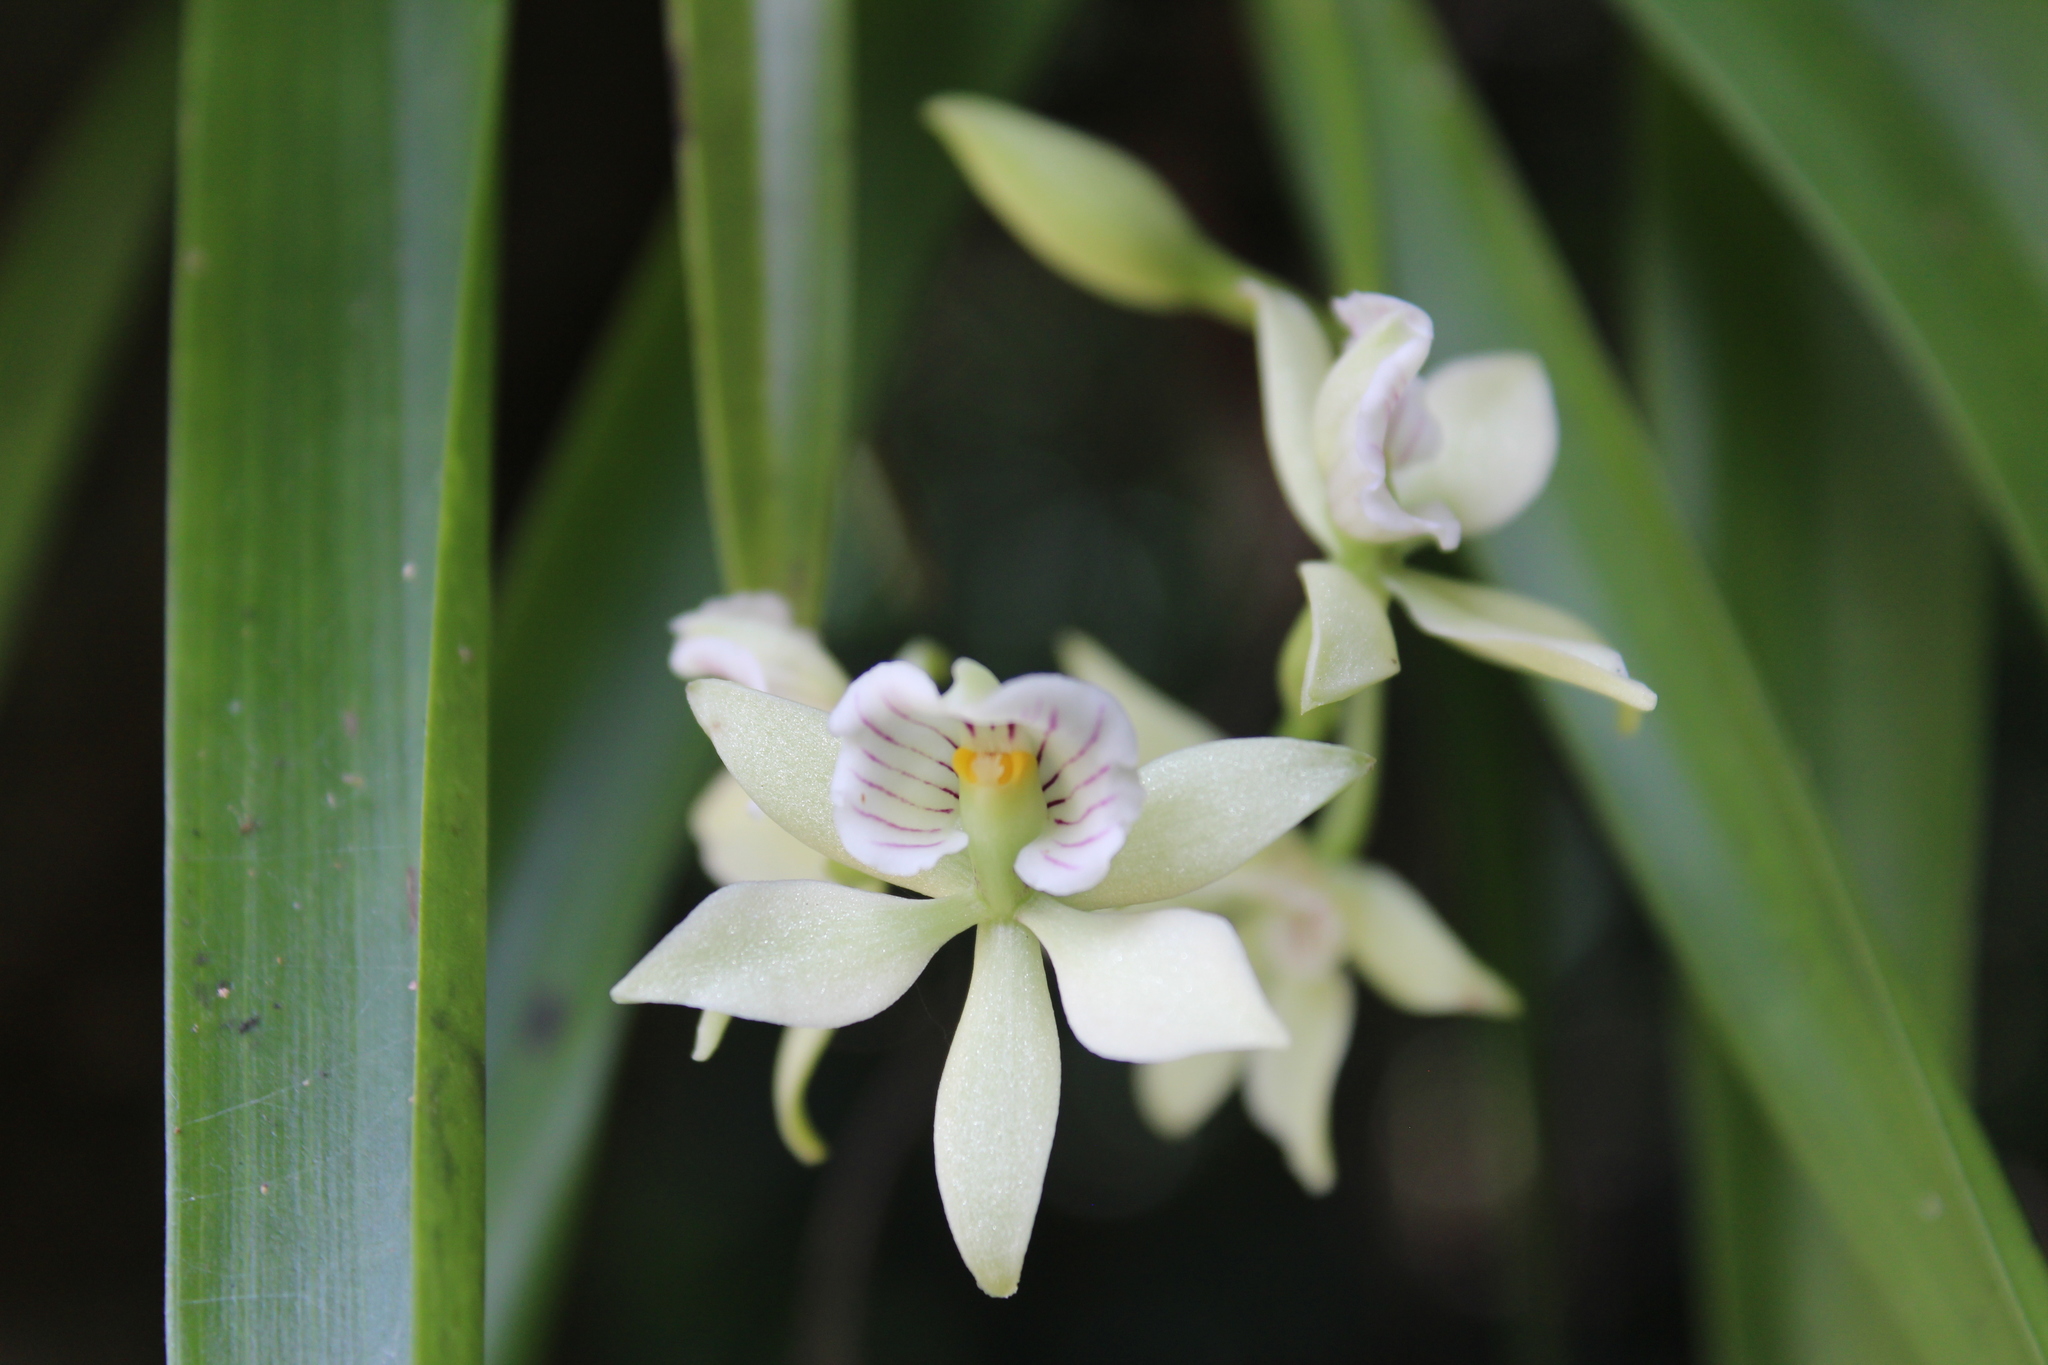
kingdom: Plantae
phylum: Tracheophyta
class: Liliopsida
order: Asparagales
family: Orchidaceae
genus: Prosthechea
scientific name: Prosthechea radiata
